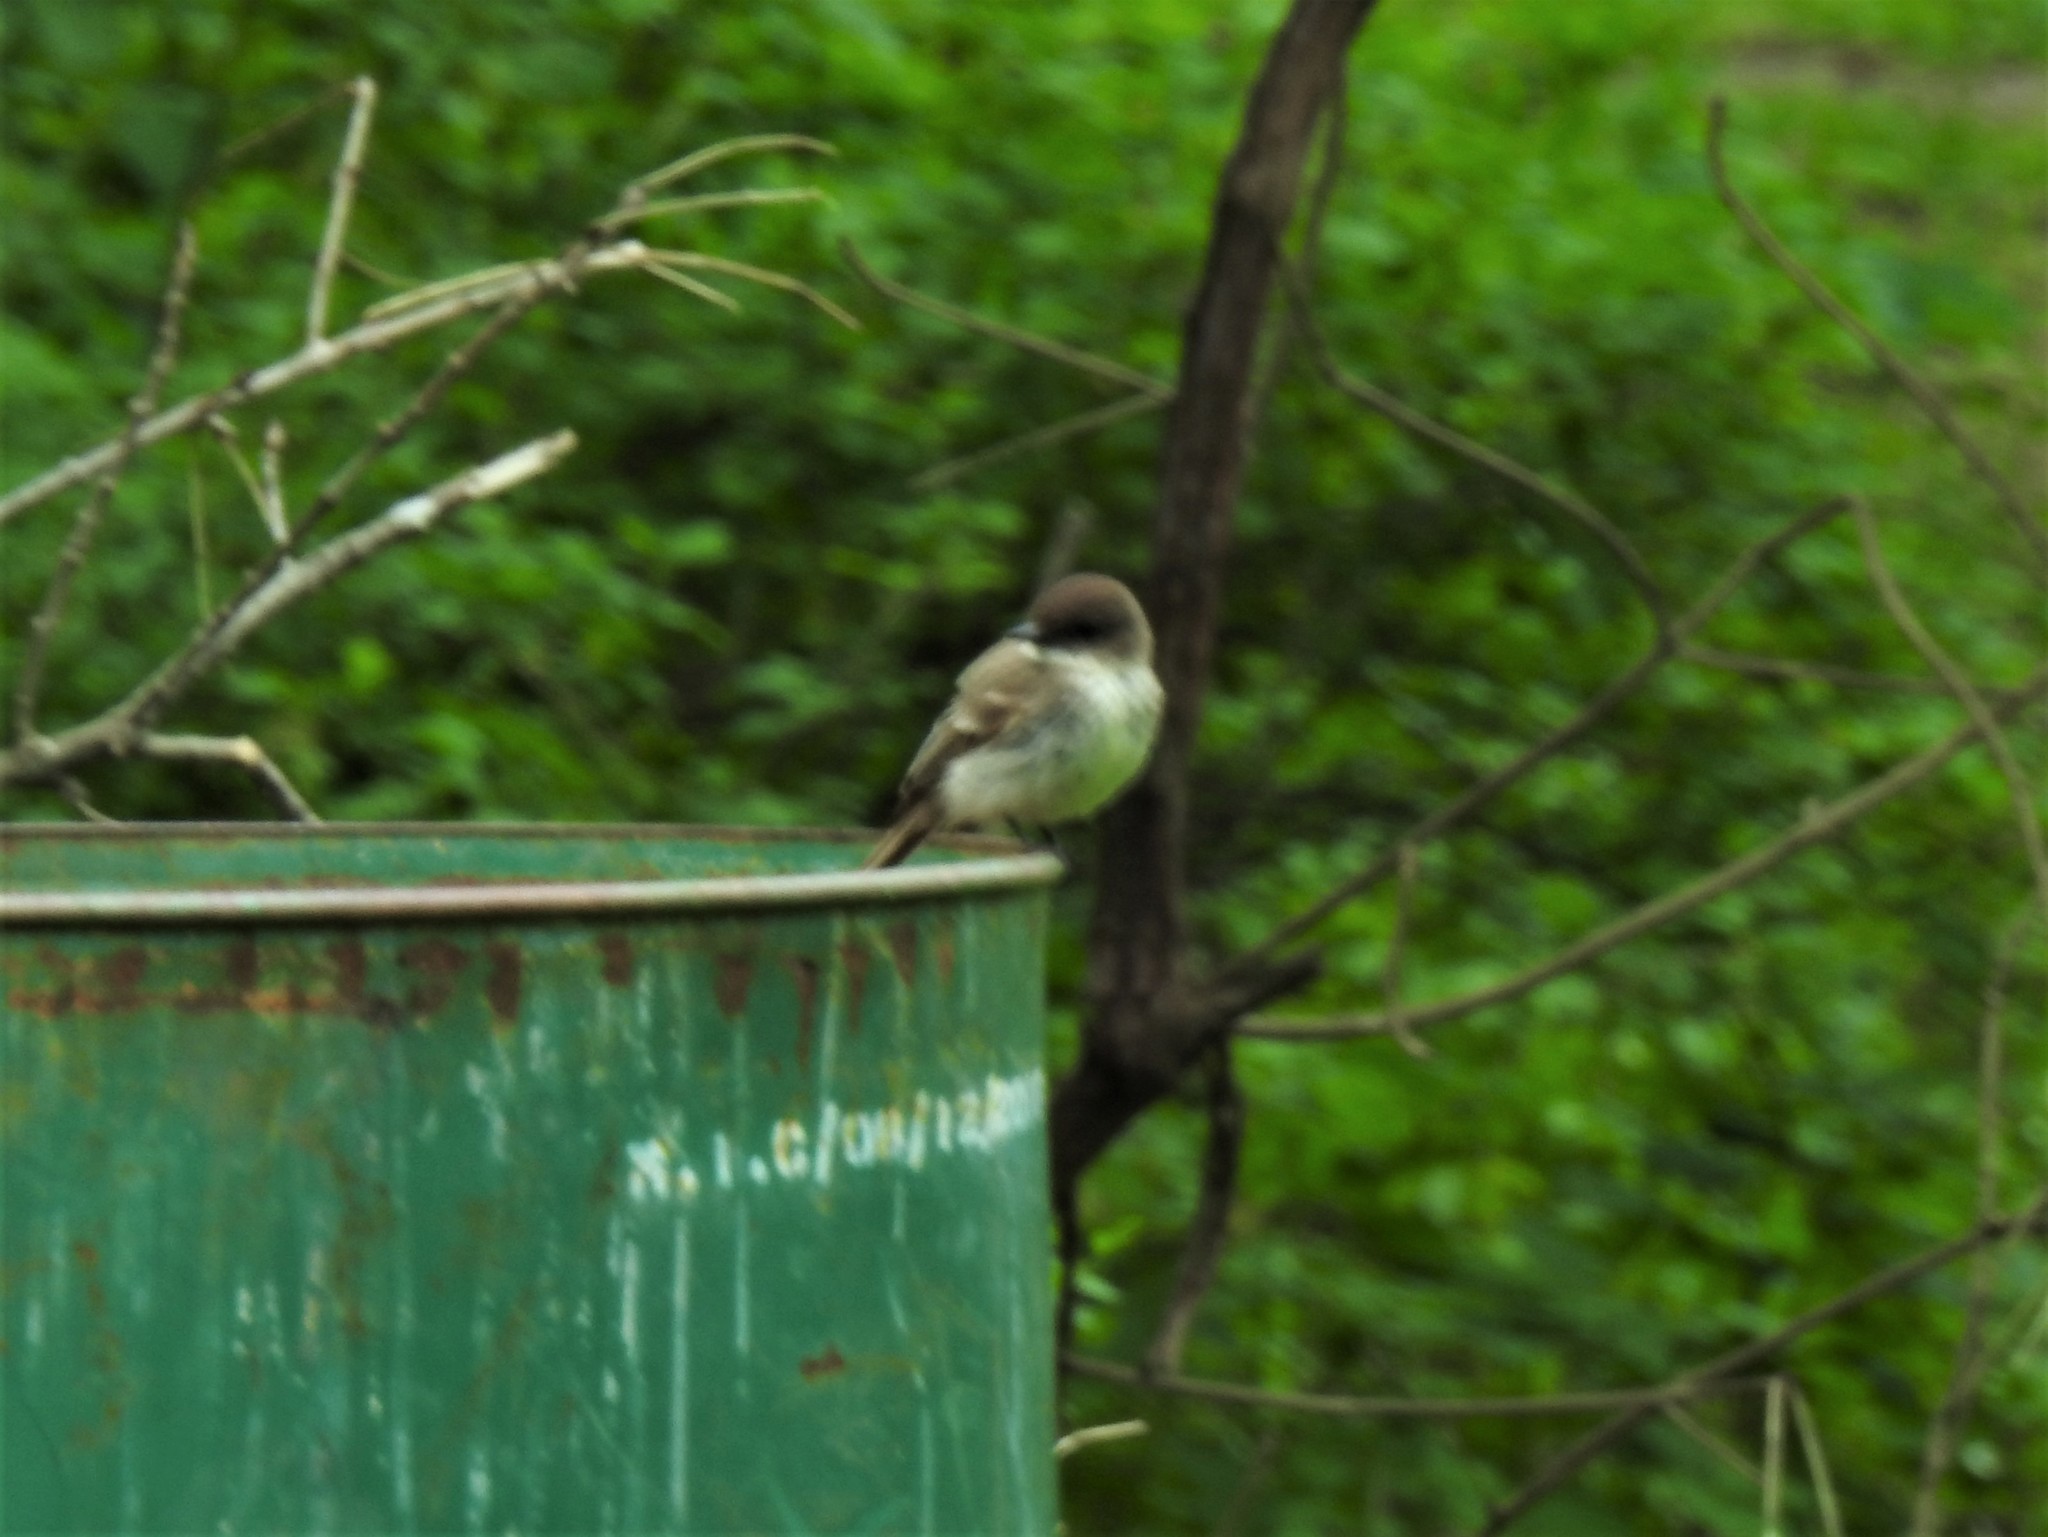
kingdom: Animalia
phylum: Chordata
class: Aves
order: Passeriformes
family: Tyrannidae
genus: Sayornis
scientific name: Sayornis phoebe
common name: Eastern phoebe
